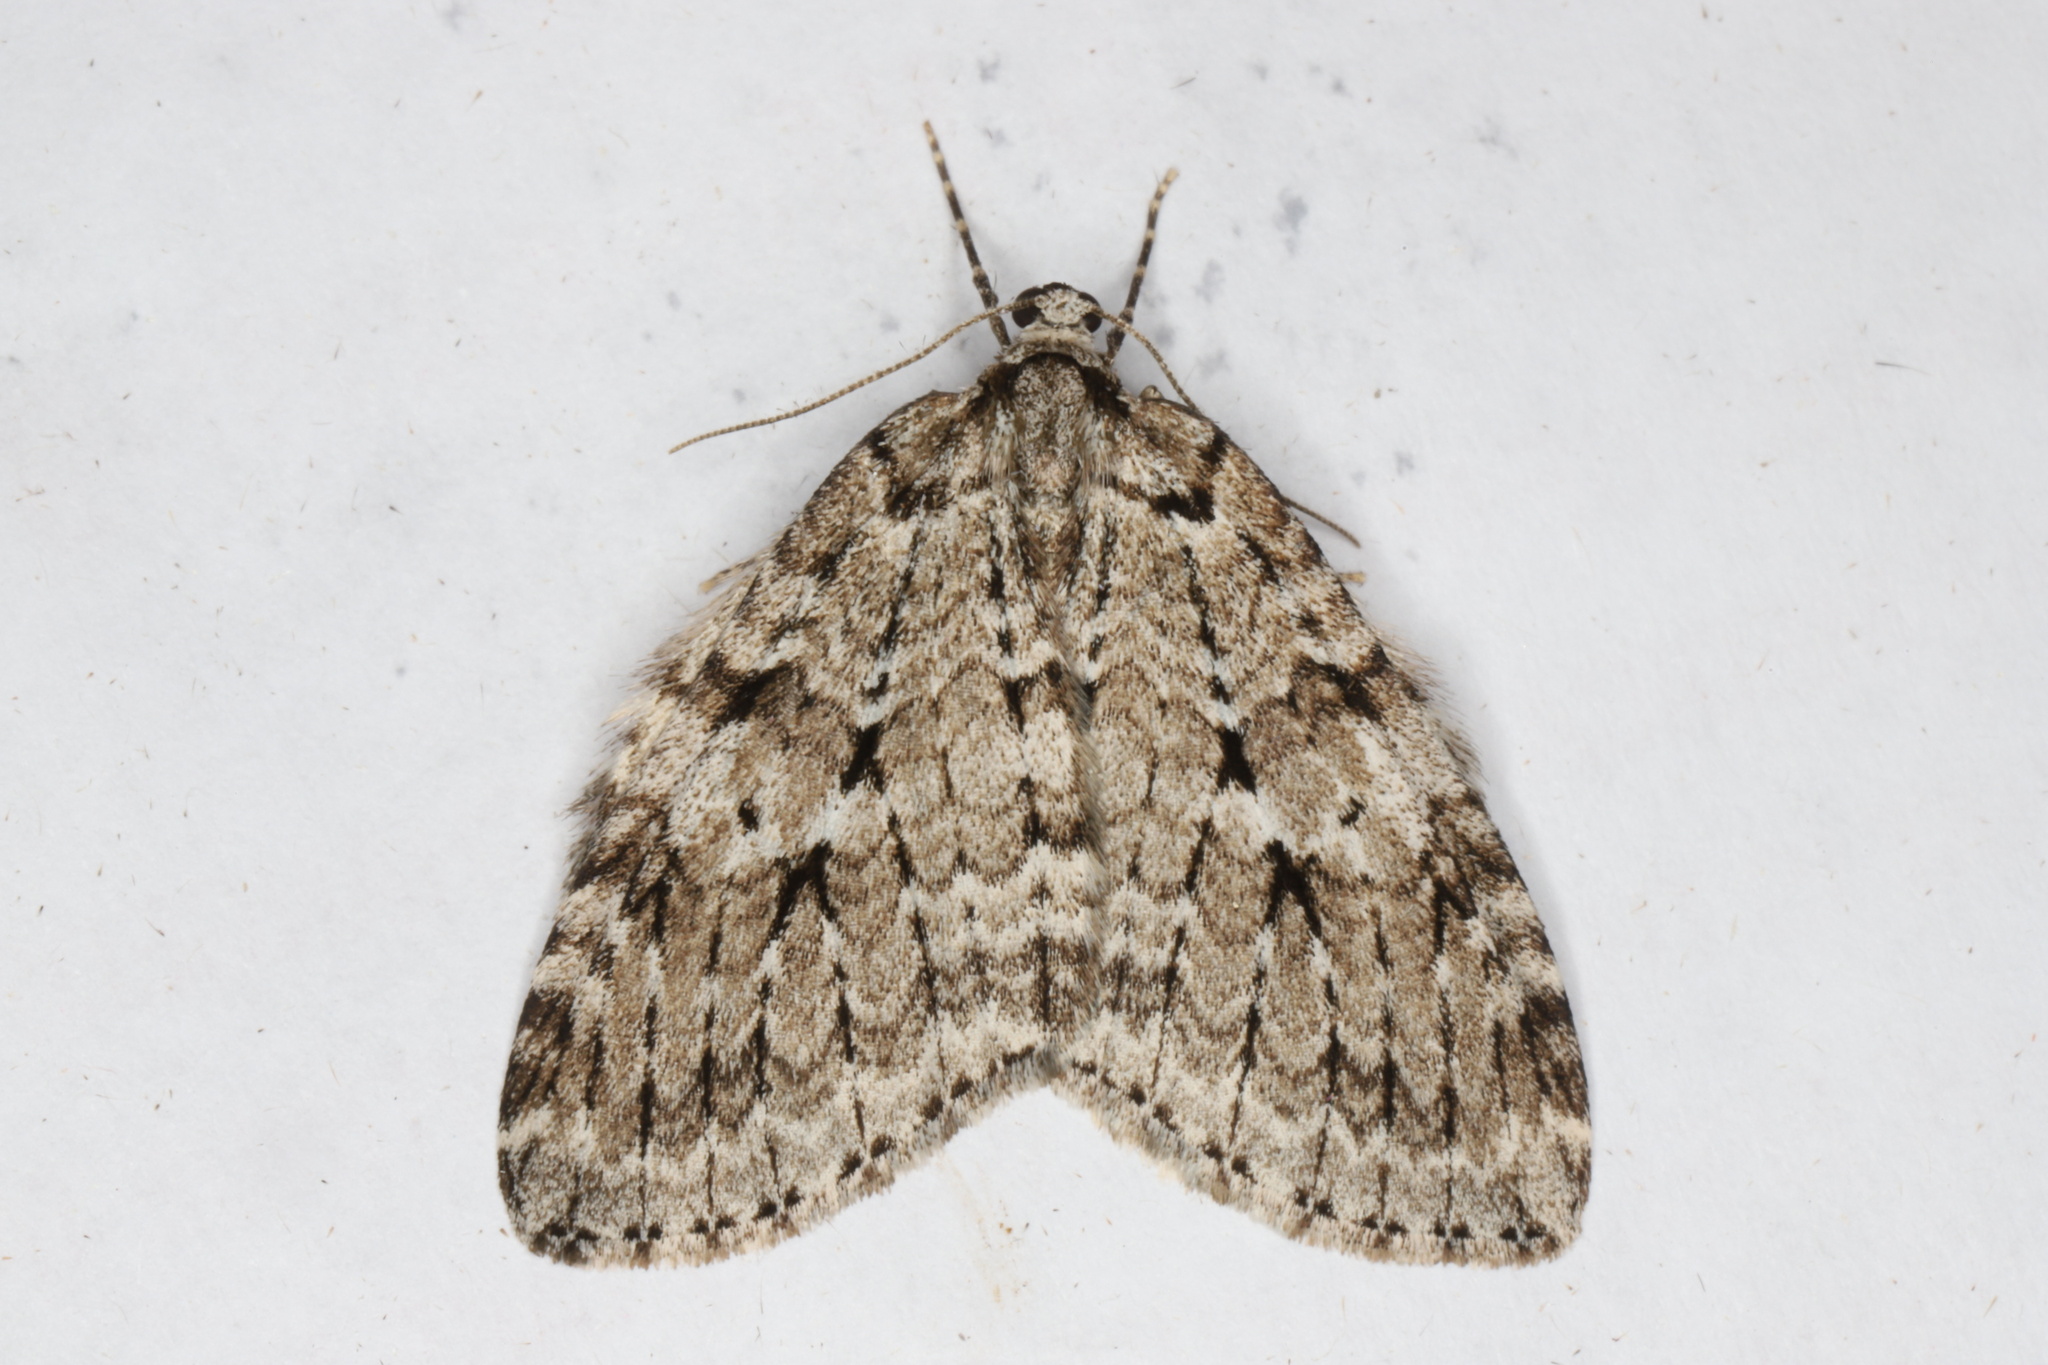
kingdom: Animalia
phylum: Arthropoda
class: Insecta
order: Lepidoptera
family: Geometridae
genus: Epirrita
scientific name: Epirrita autumnata
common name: Autumnal moth
